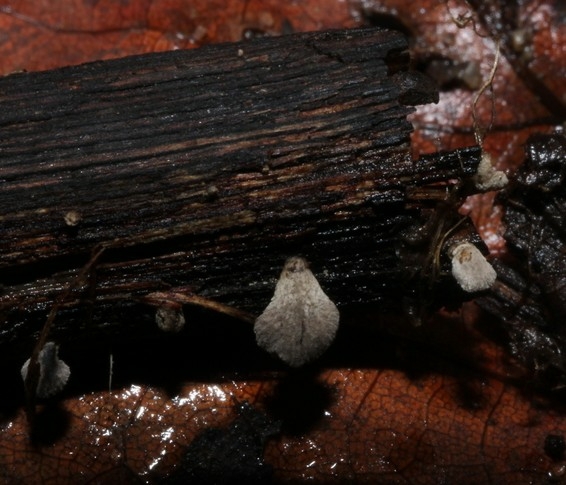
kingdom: Fungi
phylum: Basidiomycota
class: Agaricomycetes
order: Agaricales
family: Pleurotaceae
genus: Resupinatus
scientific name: Resupinatus applicatus
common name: Smoked oysterling
